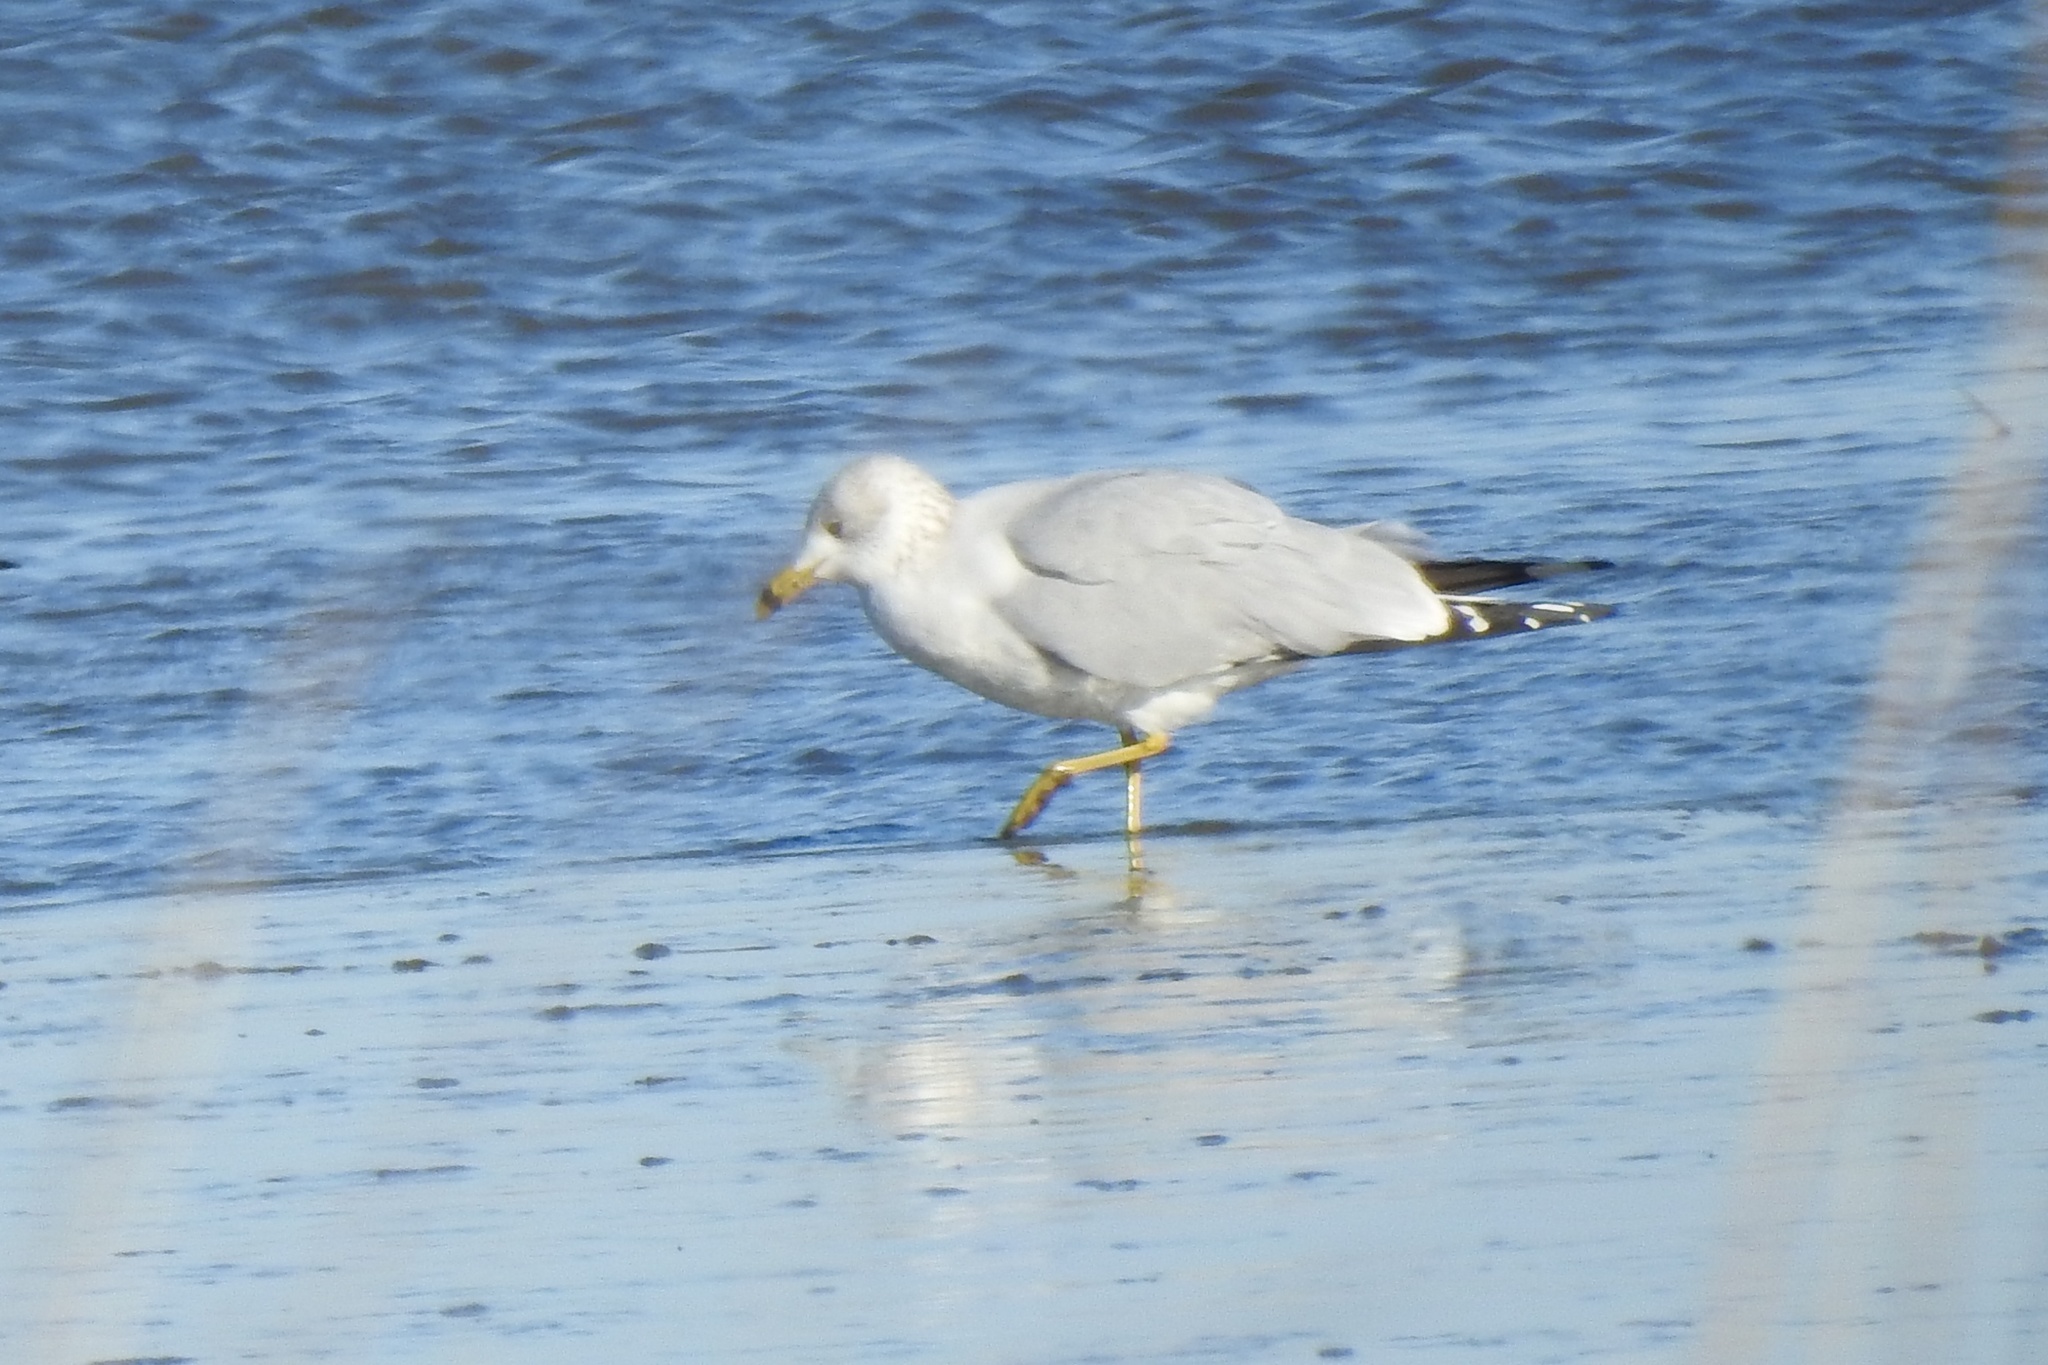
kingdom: Animalia
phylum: Chordata
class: Aves
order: Charadriiformes
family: Laridae
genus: Larus
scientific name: Larus delawarensis
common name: Ring-billed gull
